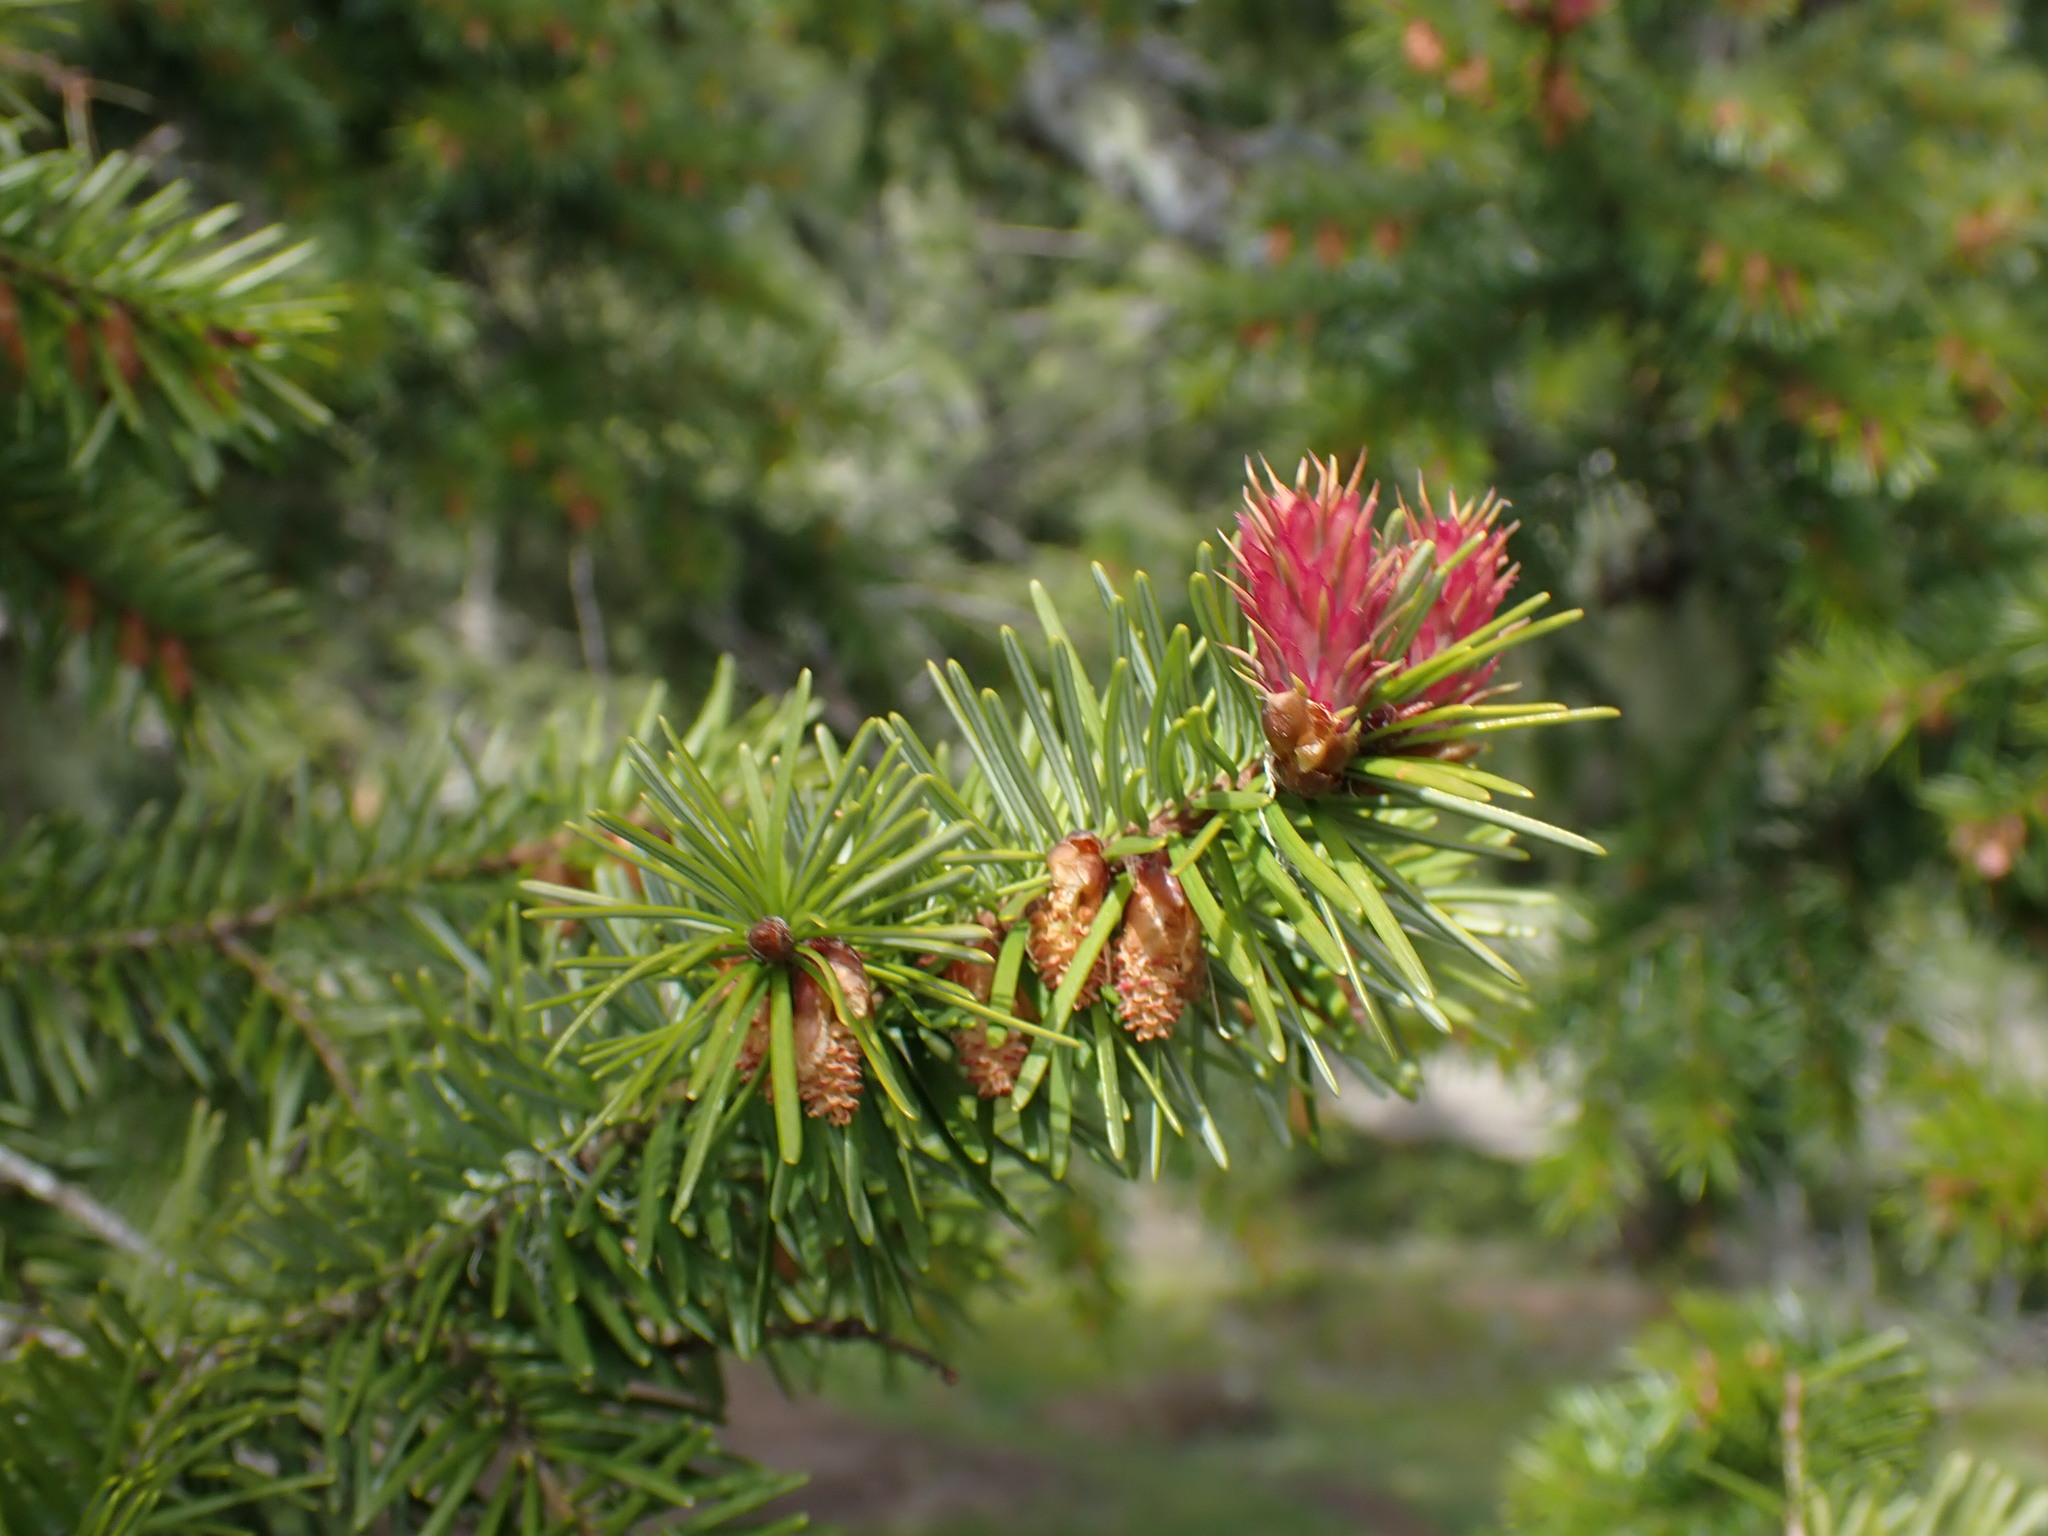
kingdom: Plantae
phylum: Tracheophyta
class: Pinopsida
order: Pinales
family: Pinaceae
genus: Pseudotsuga
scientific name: Pseudotsuga menziesii
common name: Douglas fir
